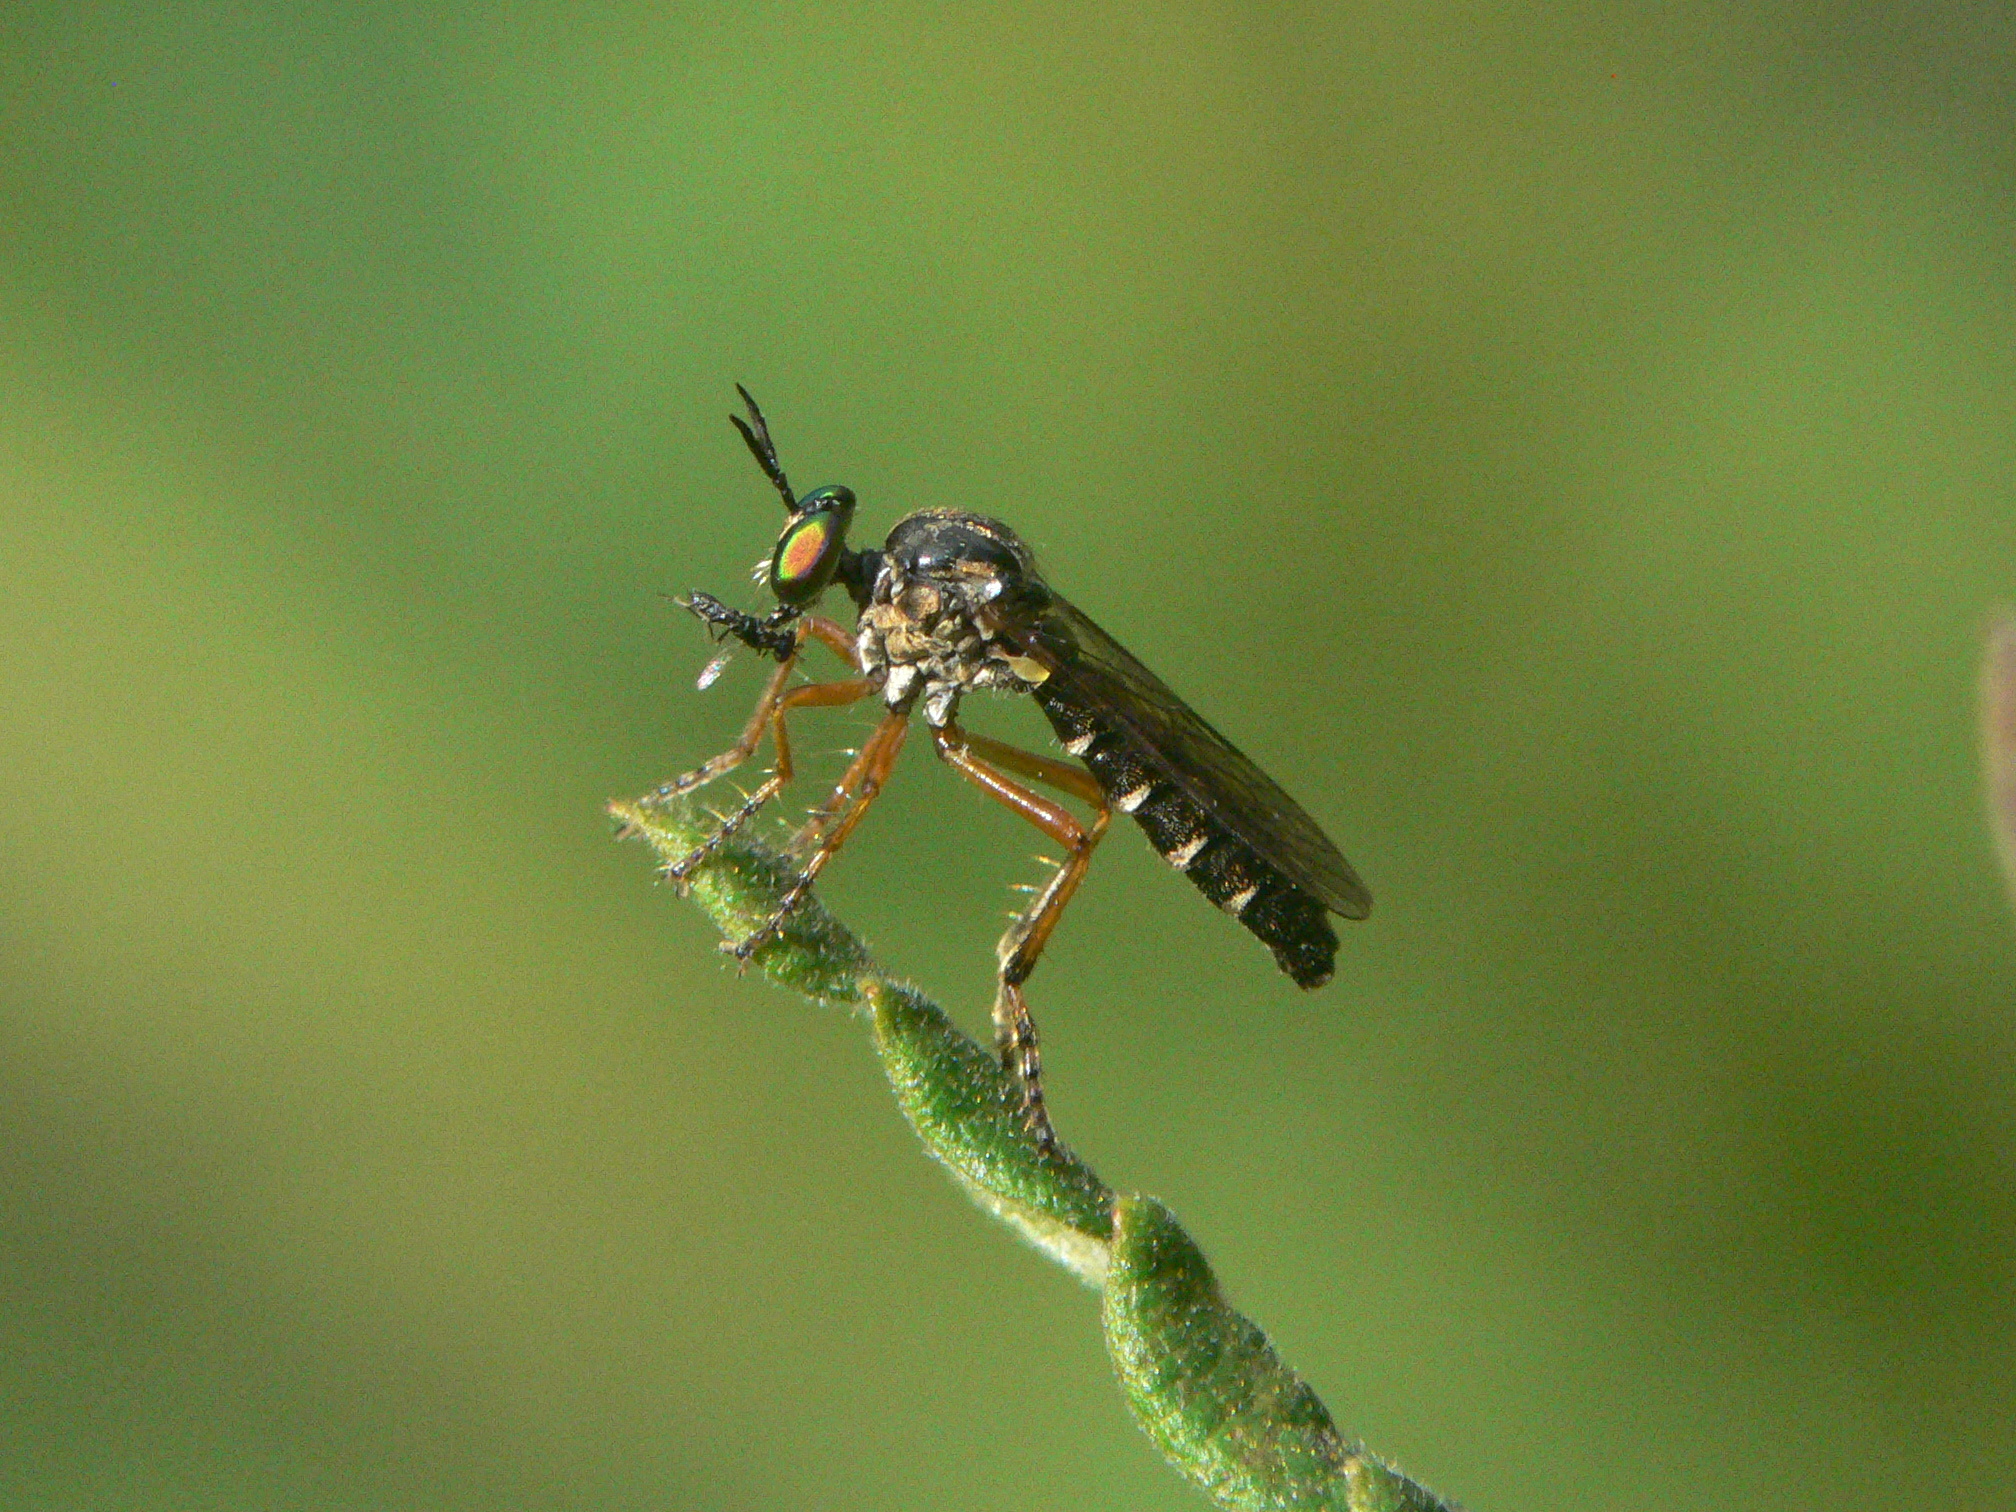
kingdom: Animalia
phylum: Arthropoda
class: Insecta
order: Diptera
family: Asilidae
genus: Taracticus
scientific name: Taracticus octopunctatus
